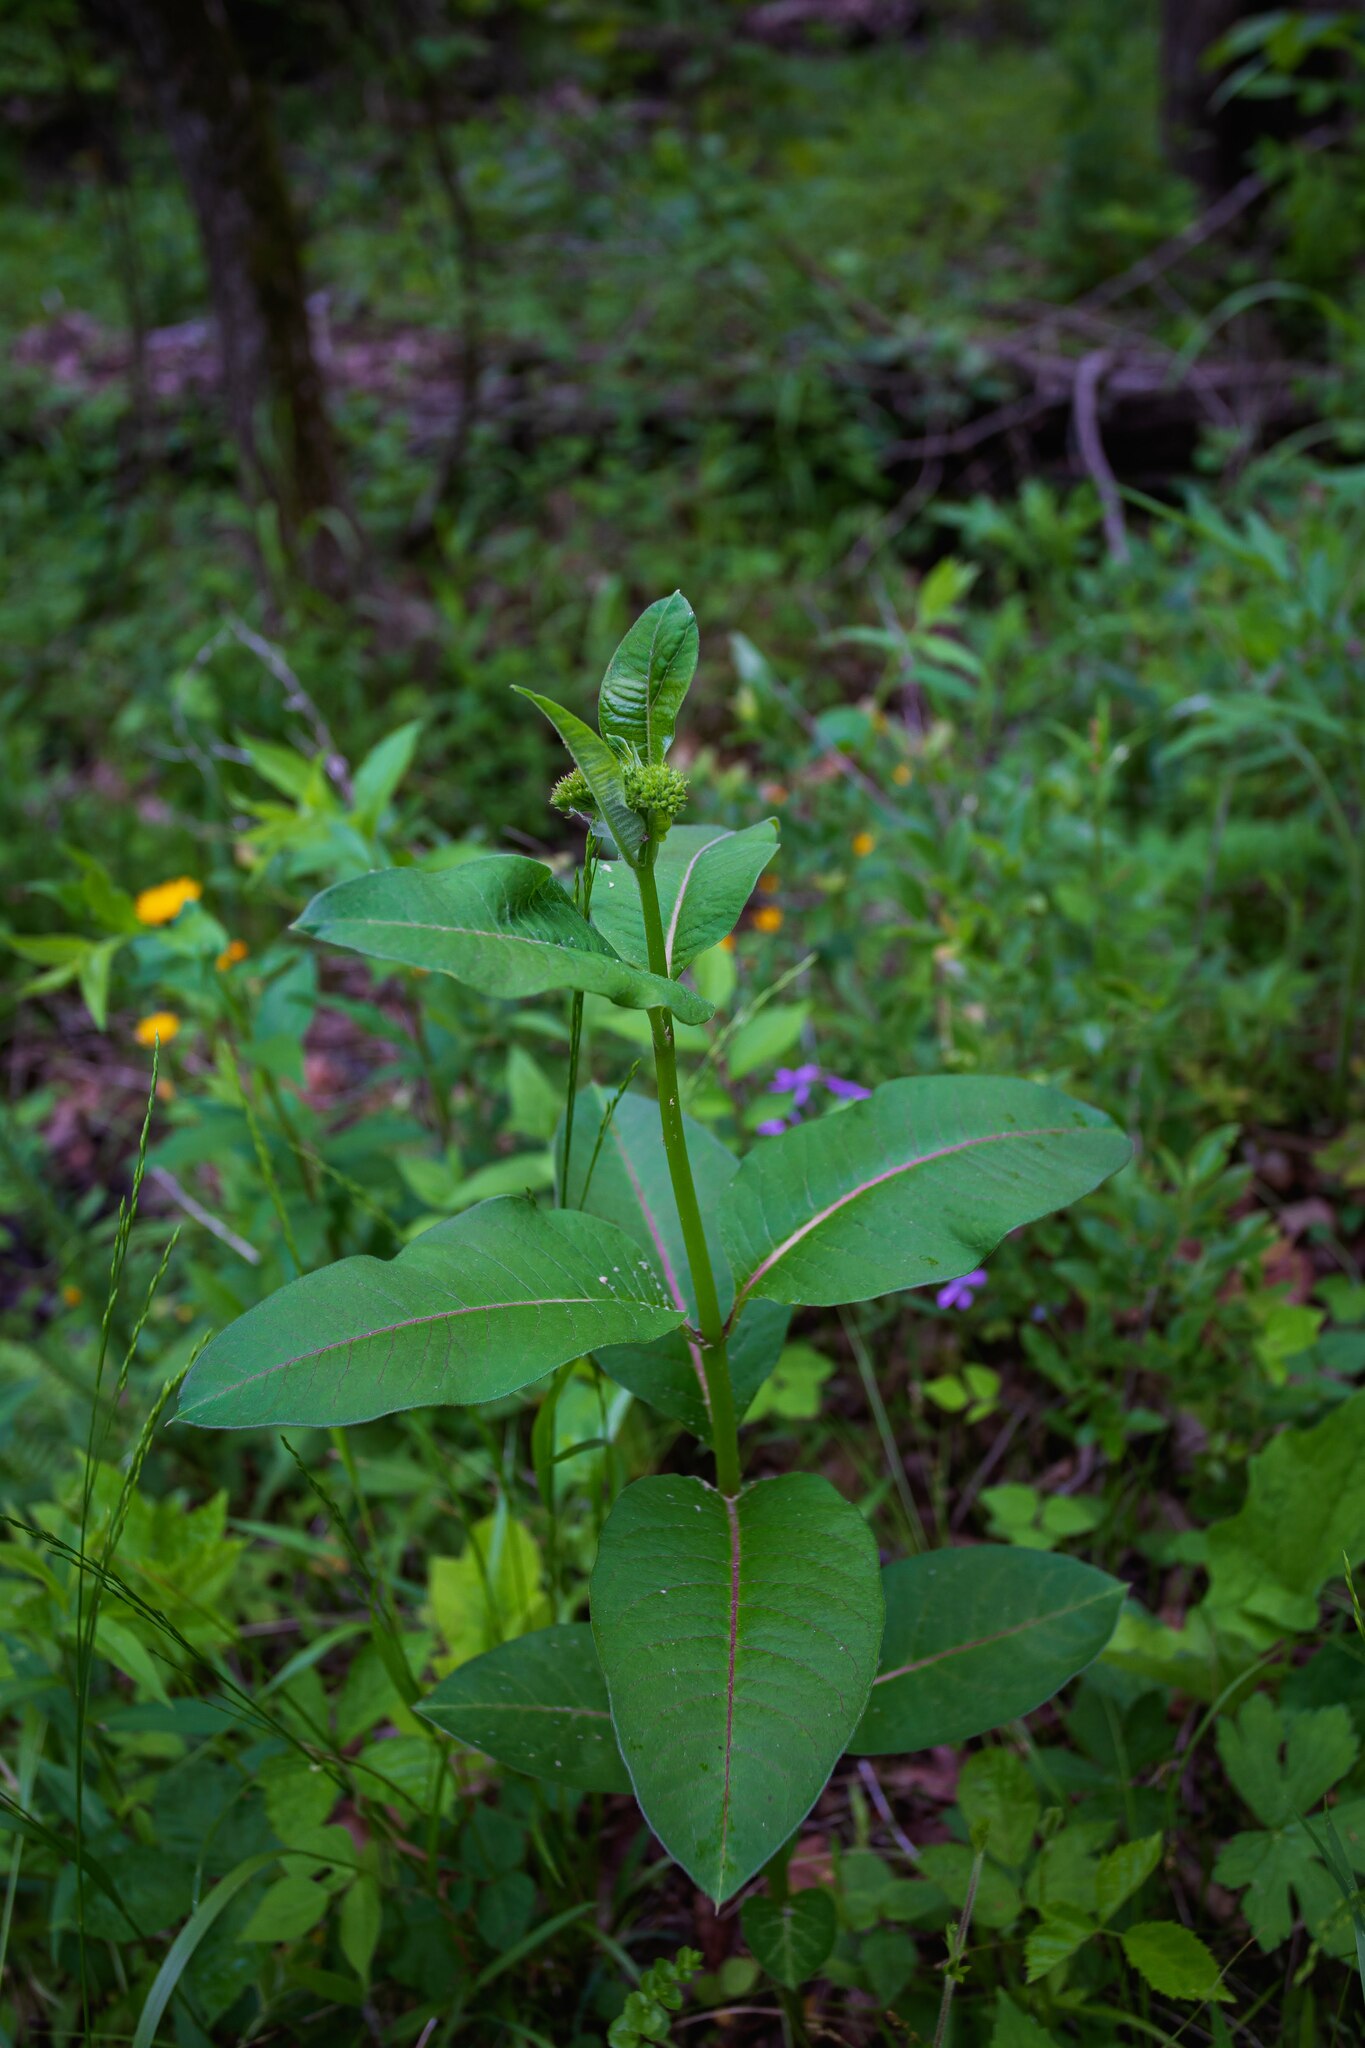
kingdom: Plantae
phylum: Tracheophyta
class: Magnoliopsida
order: Gentianales
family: Apocynaceae
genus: Asclepias
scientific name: Asclepias purpurascens
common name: Purple milkweed
